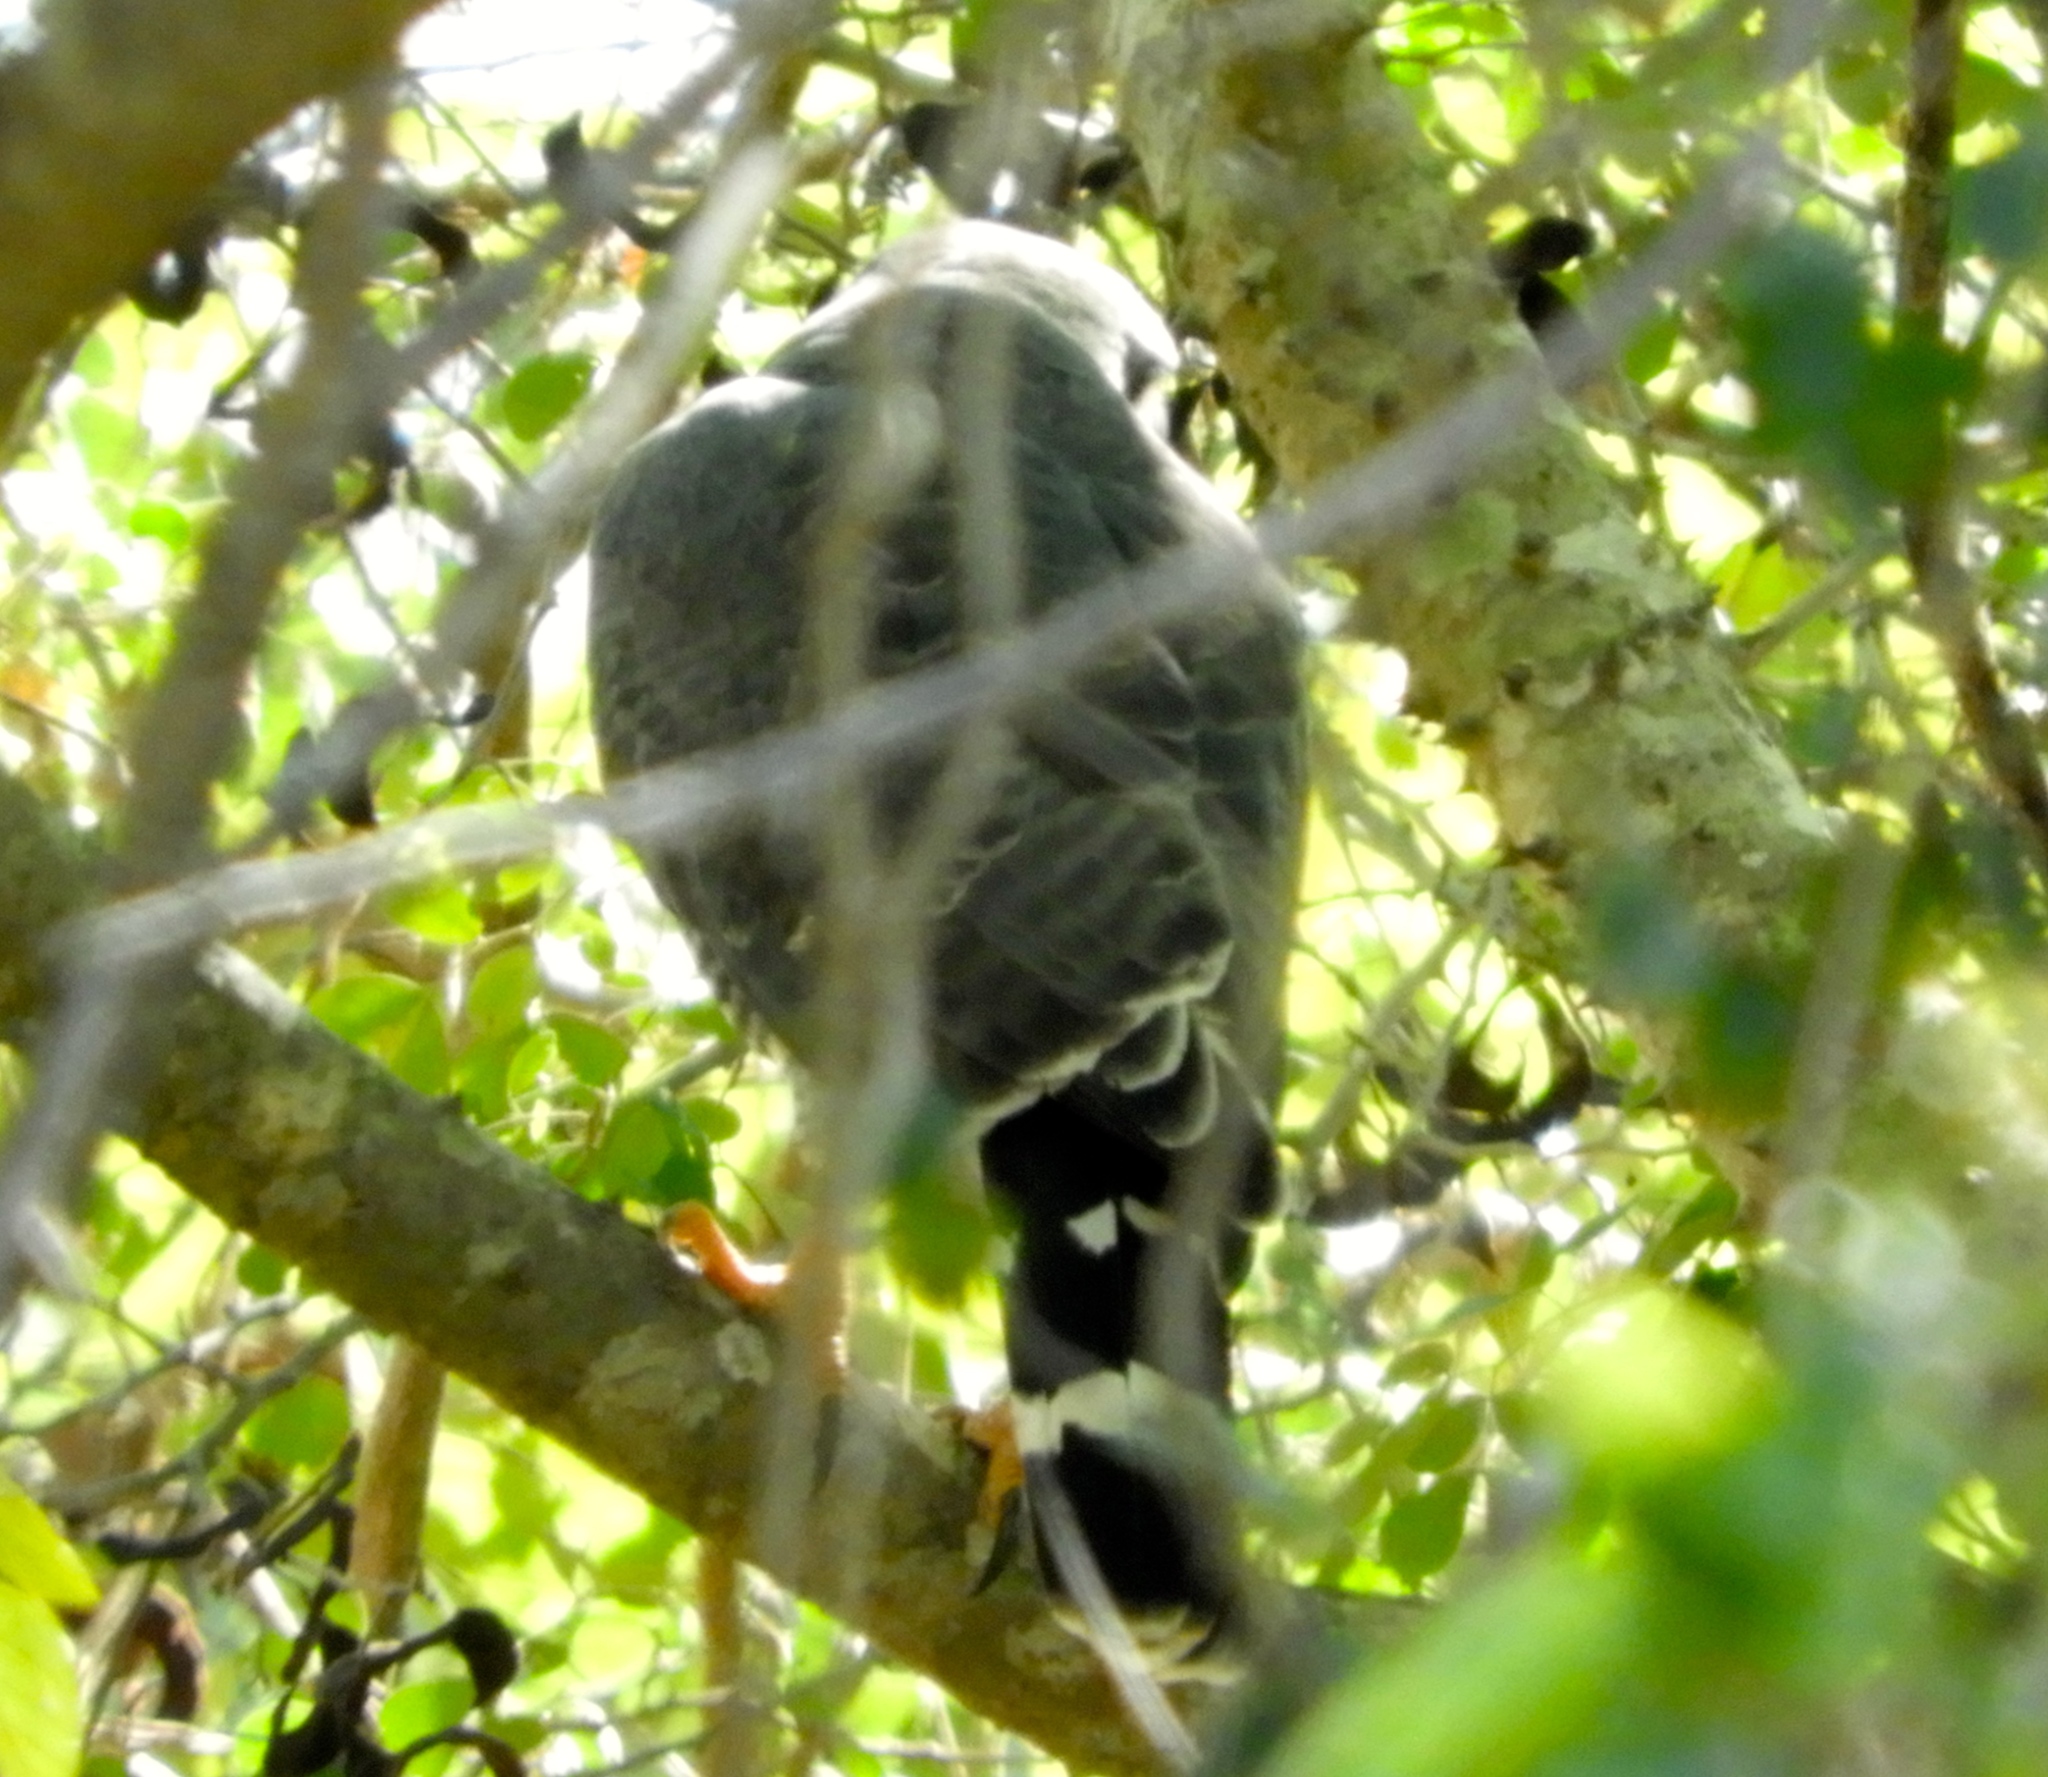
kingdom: Animalia
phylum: Chordata
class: Aves
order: Accipitriformes
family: Accipitridae
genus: Buteo
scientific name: Buteo nitidus
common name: Grey-lined hawk
